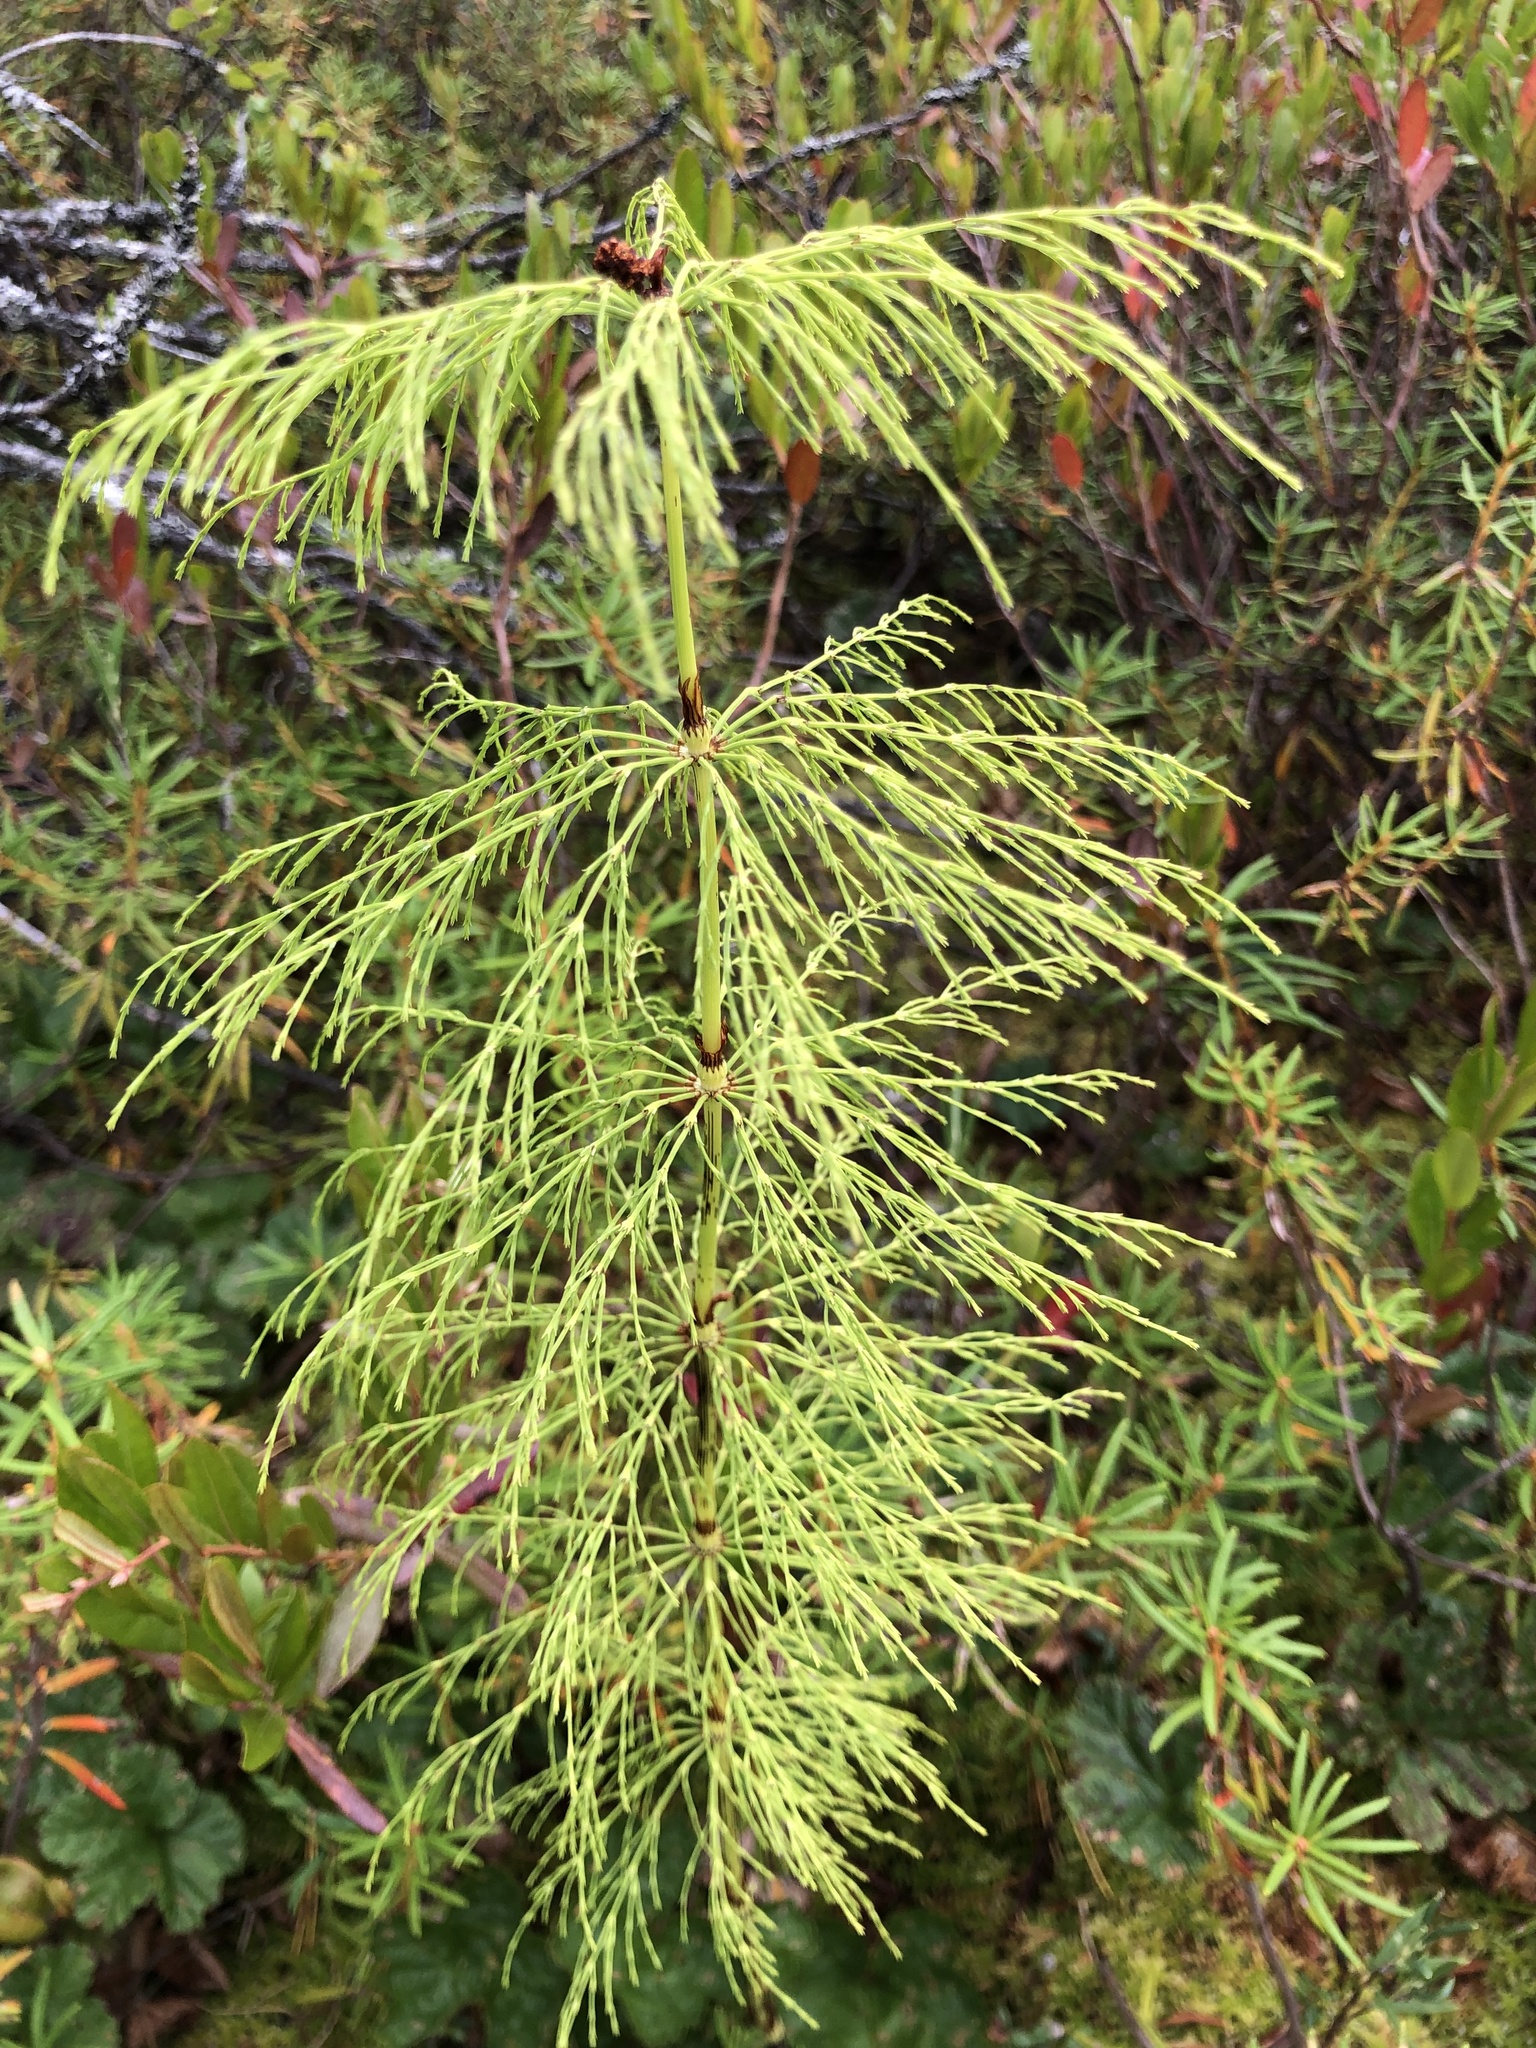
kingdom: Plantae
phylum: Tracheophyta
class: Polypodiopsida
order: Equisetales
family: Equisetaceae
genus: Equisetum
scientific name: Equisetum sylvaticum
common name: Wood horsetail
